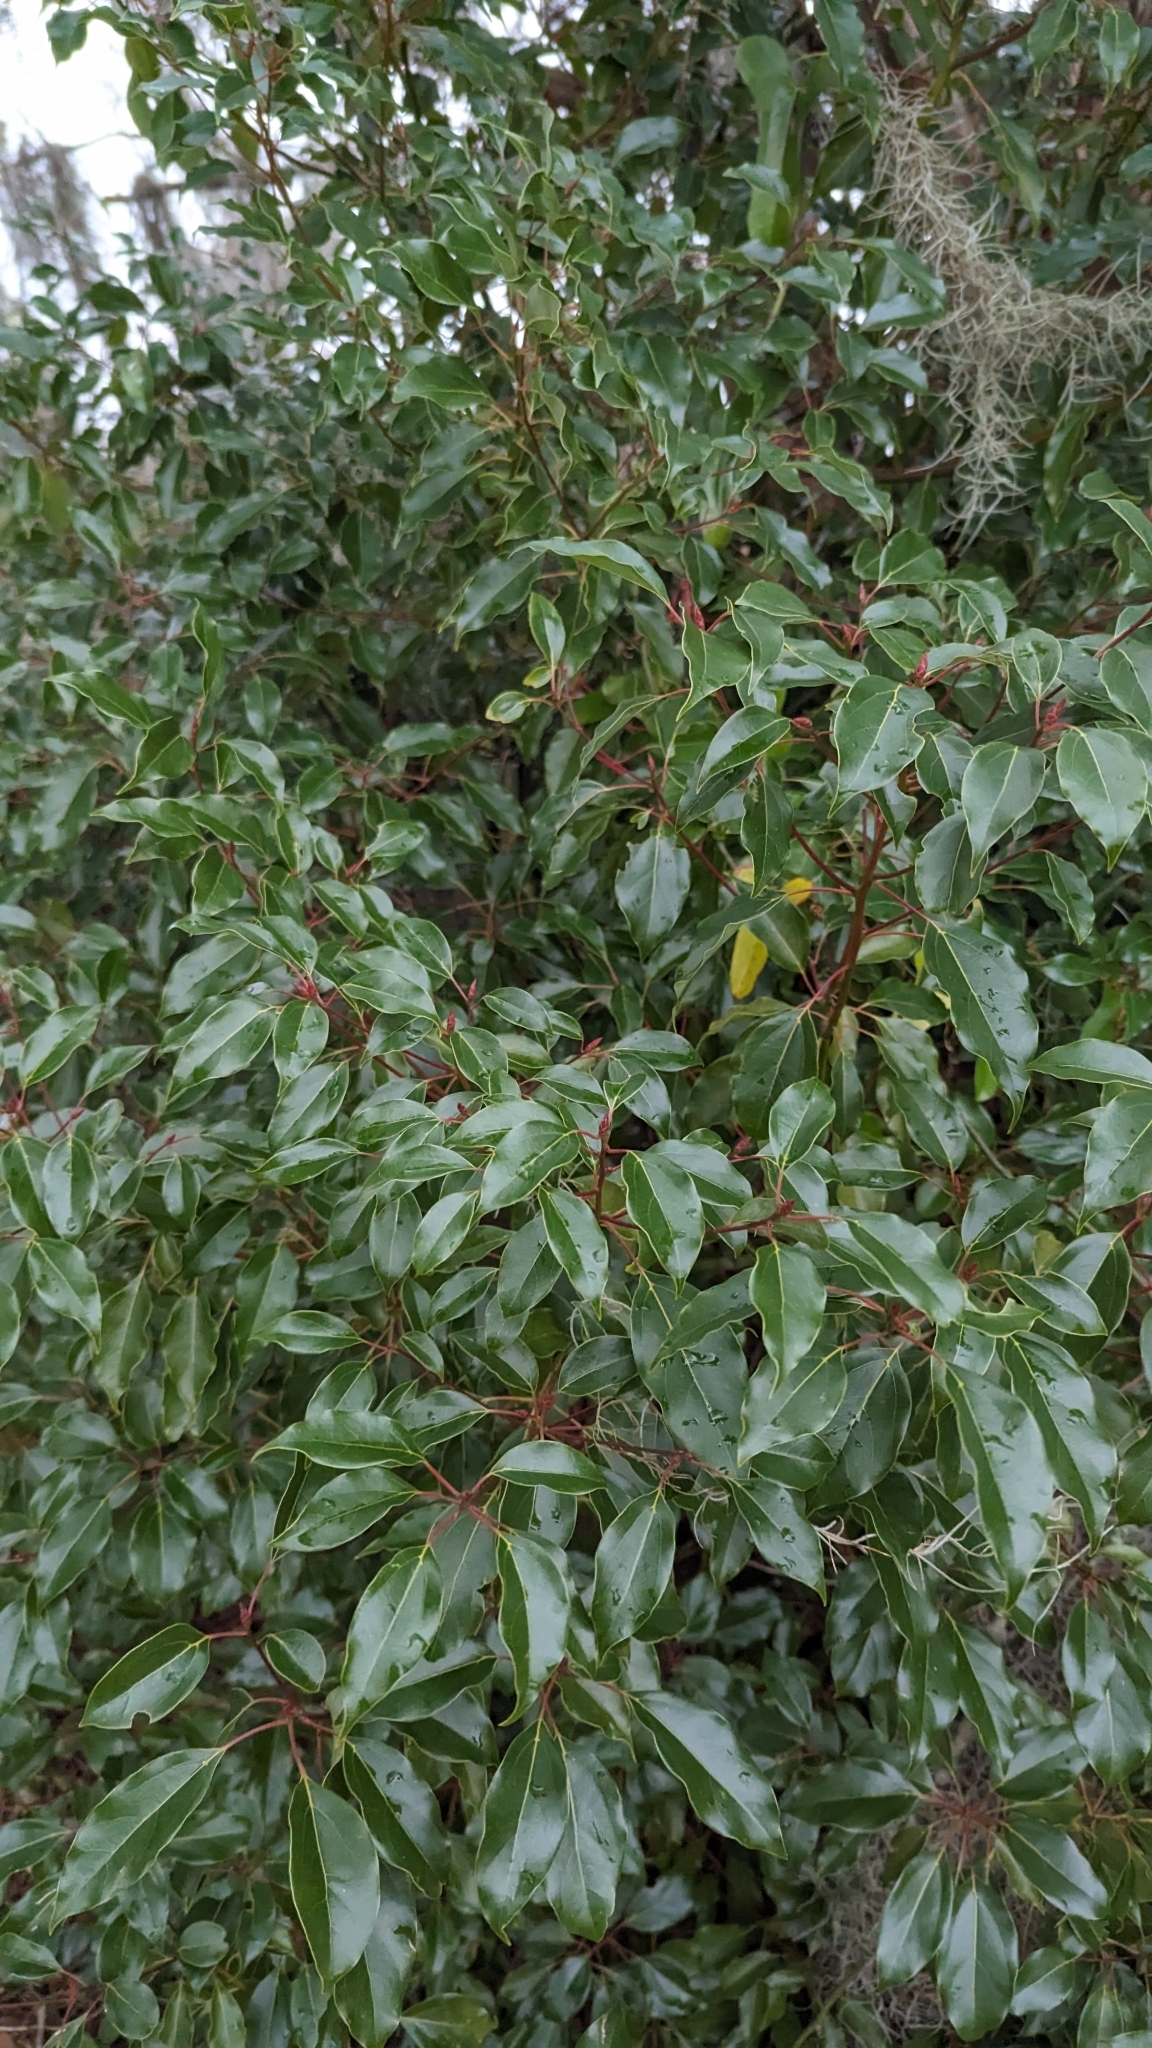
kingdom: Plantae
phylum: Tracheophyta
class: Magnoliopsida
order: Laurales
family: Lauraceae
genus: Cinnamomum
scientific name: Cinnamomum camphora
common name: Camphortree
